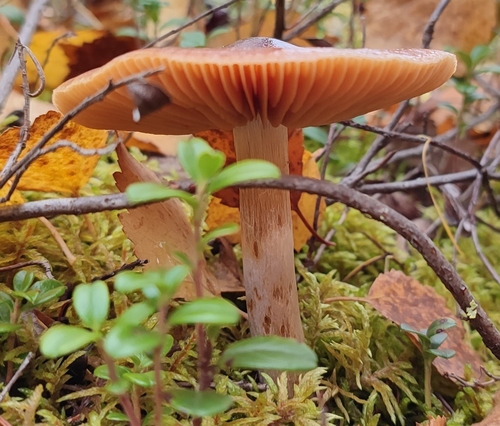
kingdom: Fungi
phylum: Basidiomycota
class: Agaricomycetes
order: Agaricales
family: Cortinariaceae
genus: Cortinarius
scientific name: Cortinarius
